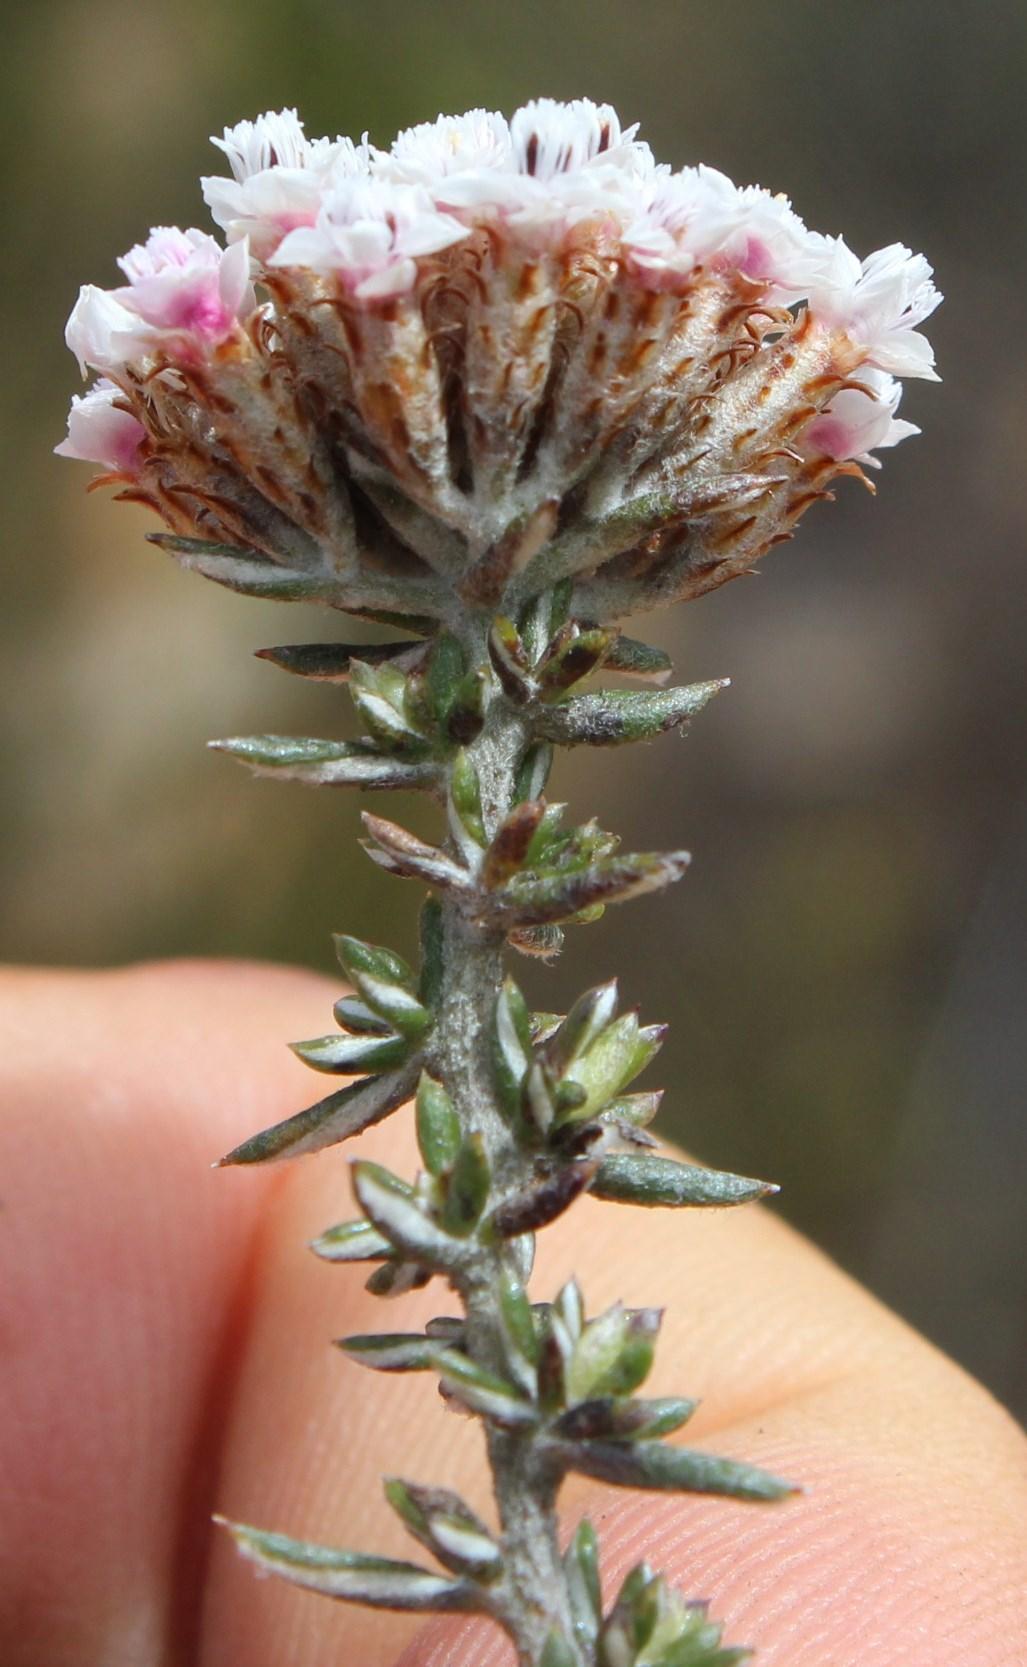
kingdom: Plantae
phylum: Tracheophyta
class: Magnoliopsida
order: Asterales
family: Asteraceae
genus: Metalasia
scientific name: Metalasia massonii
